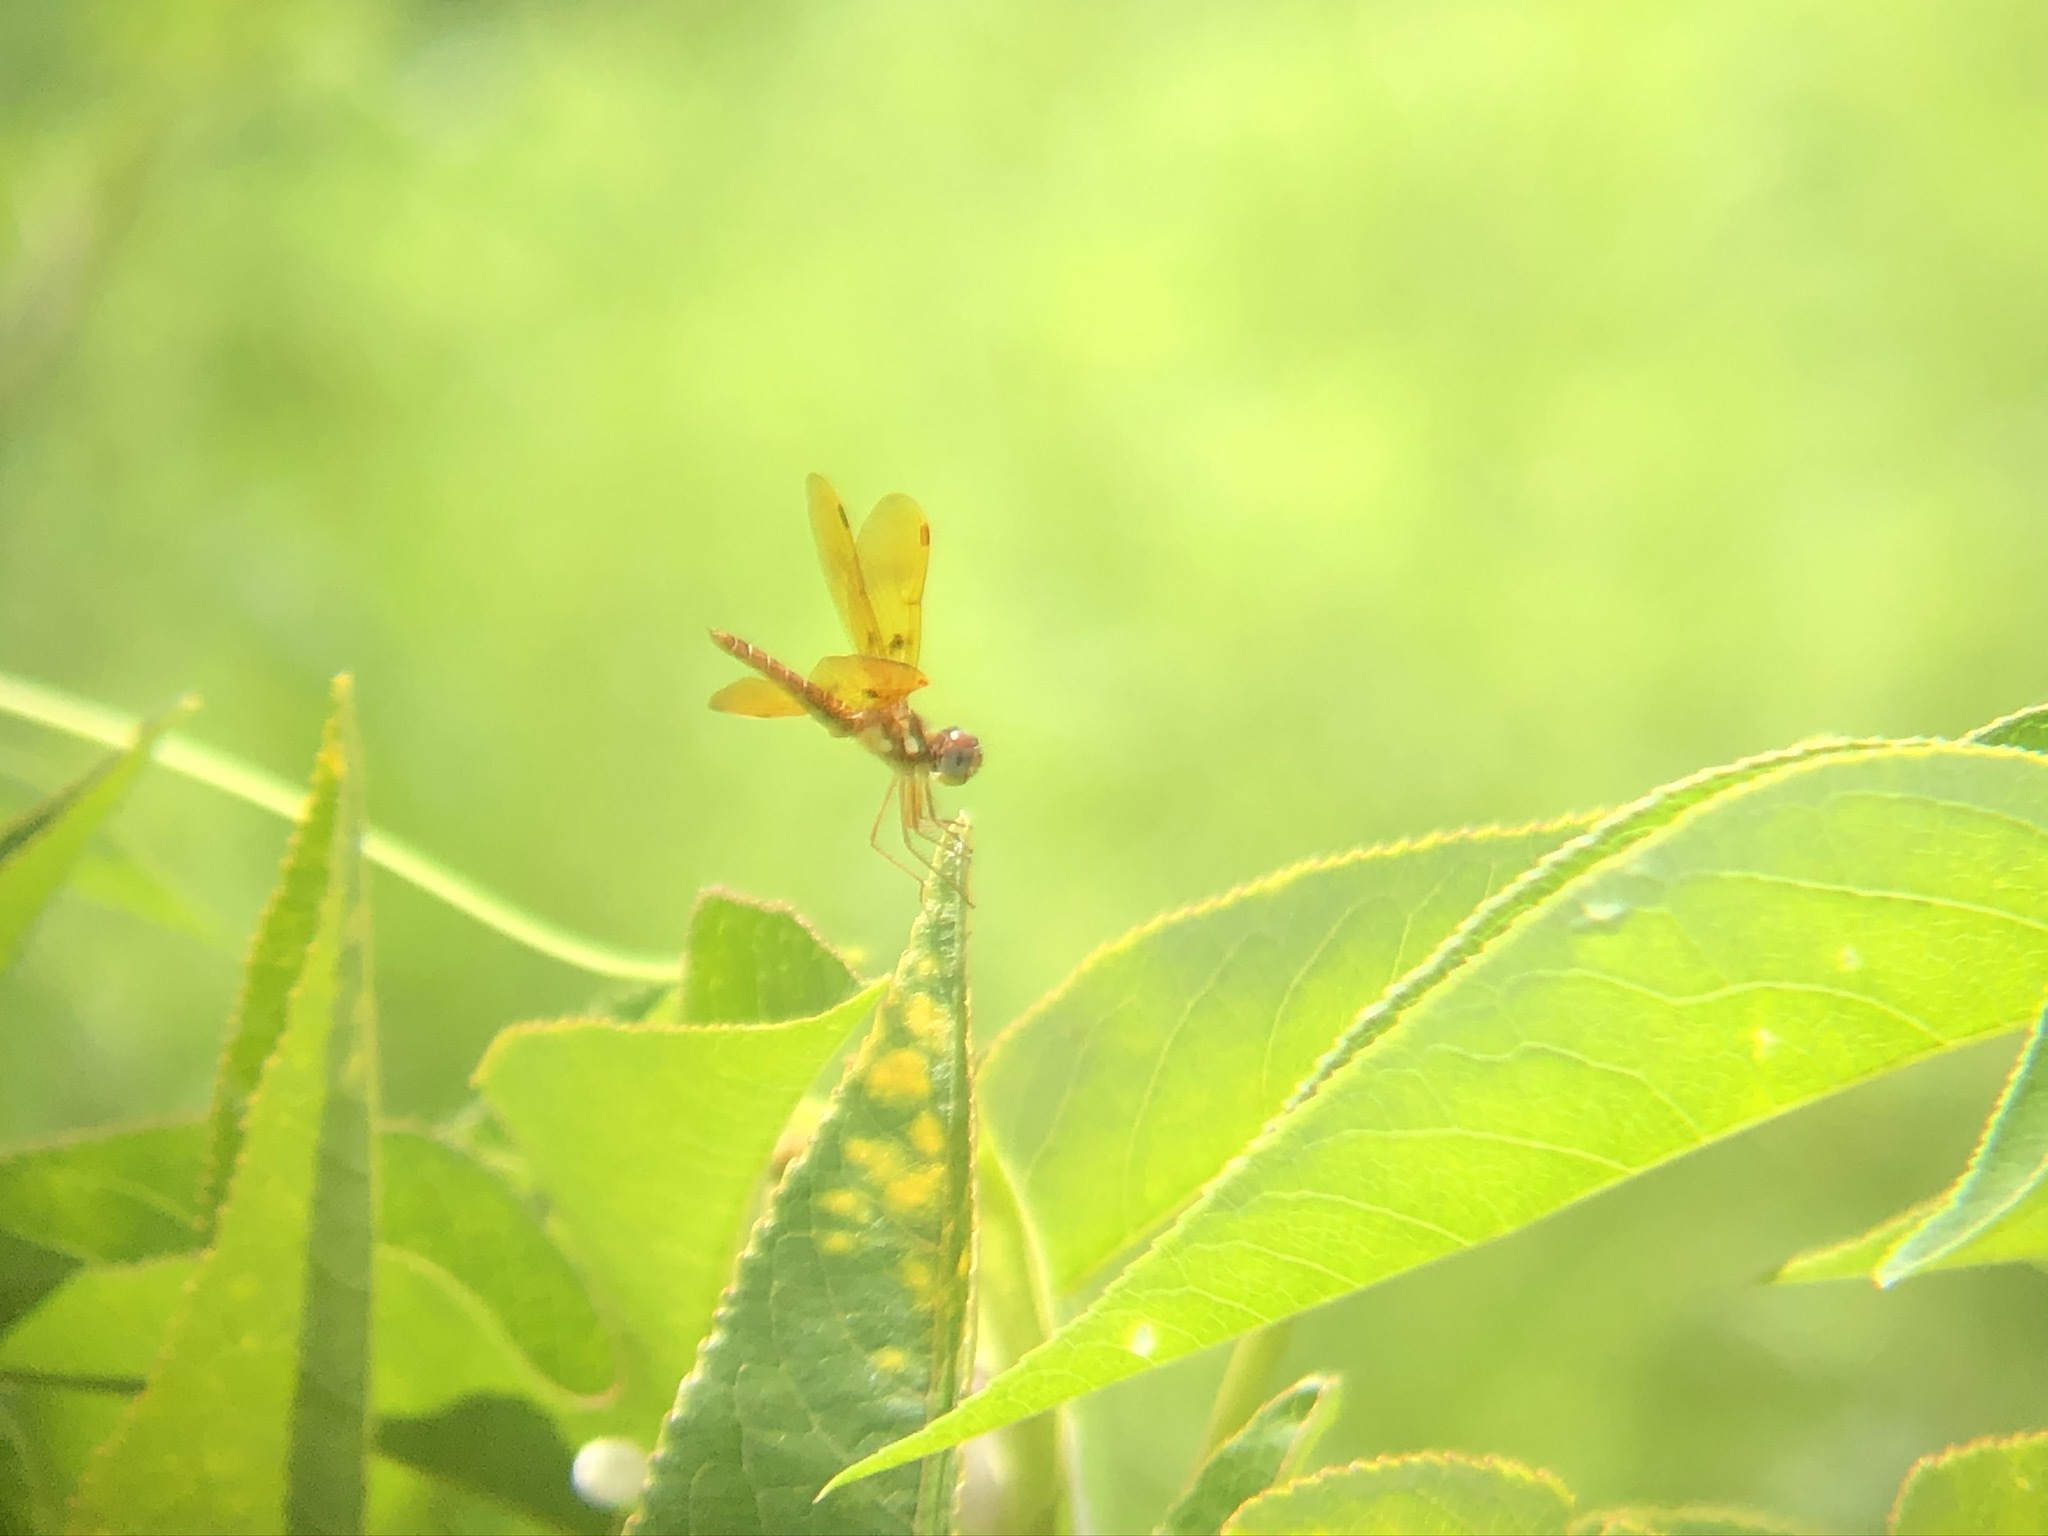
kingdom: Animalia
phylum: Arthropoda
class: Insecta
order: Odonata
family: Libellulidae
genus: Perithemis
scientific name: Perithemis tenera
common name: Eastern amberwing
